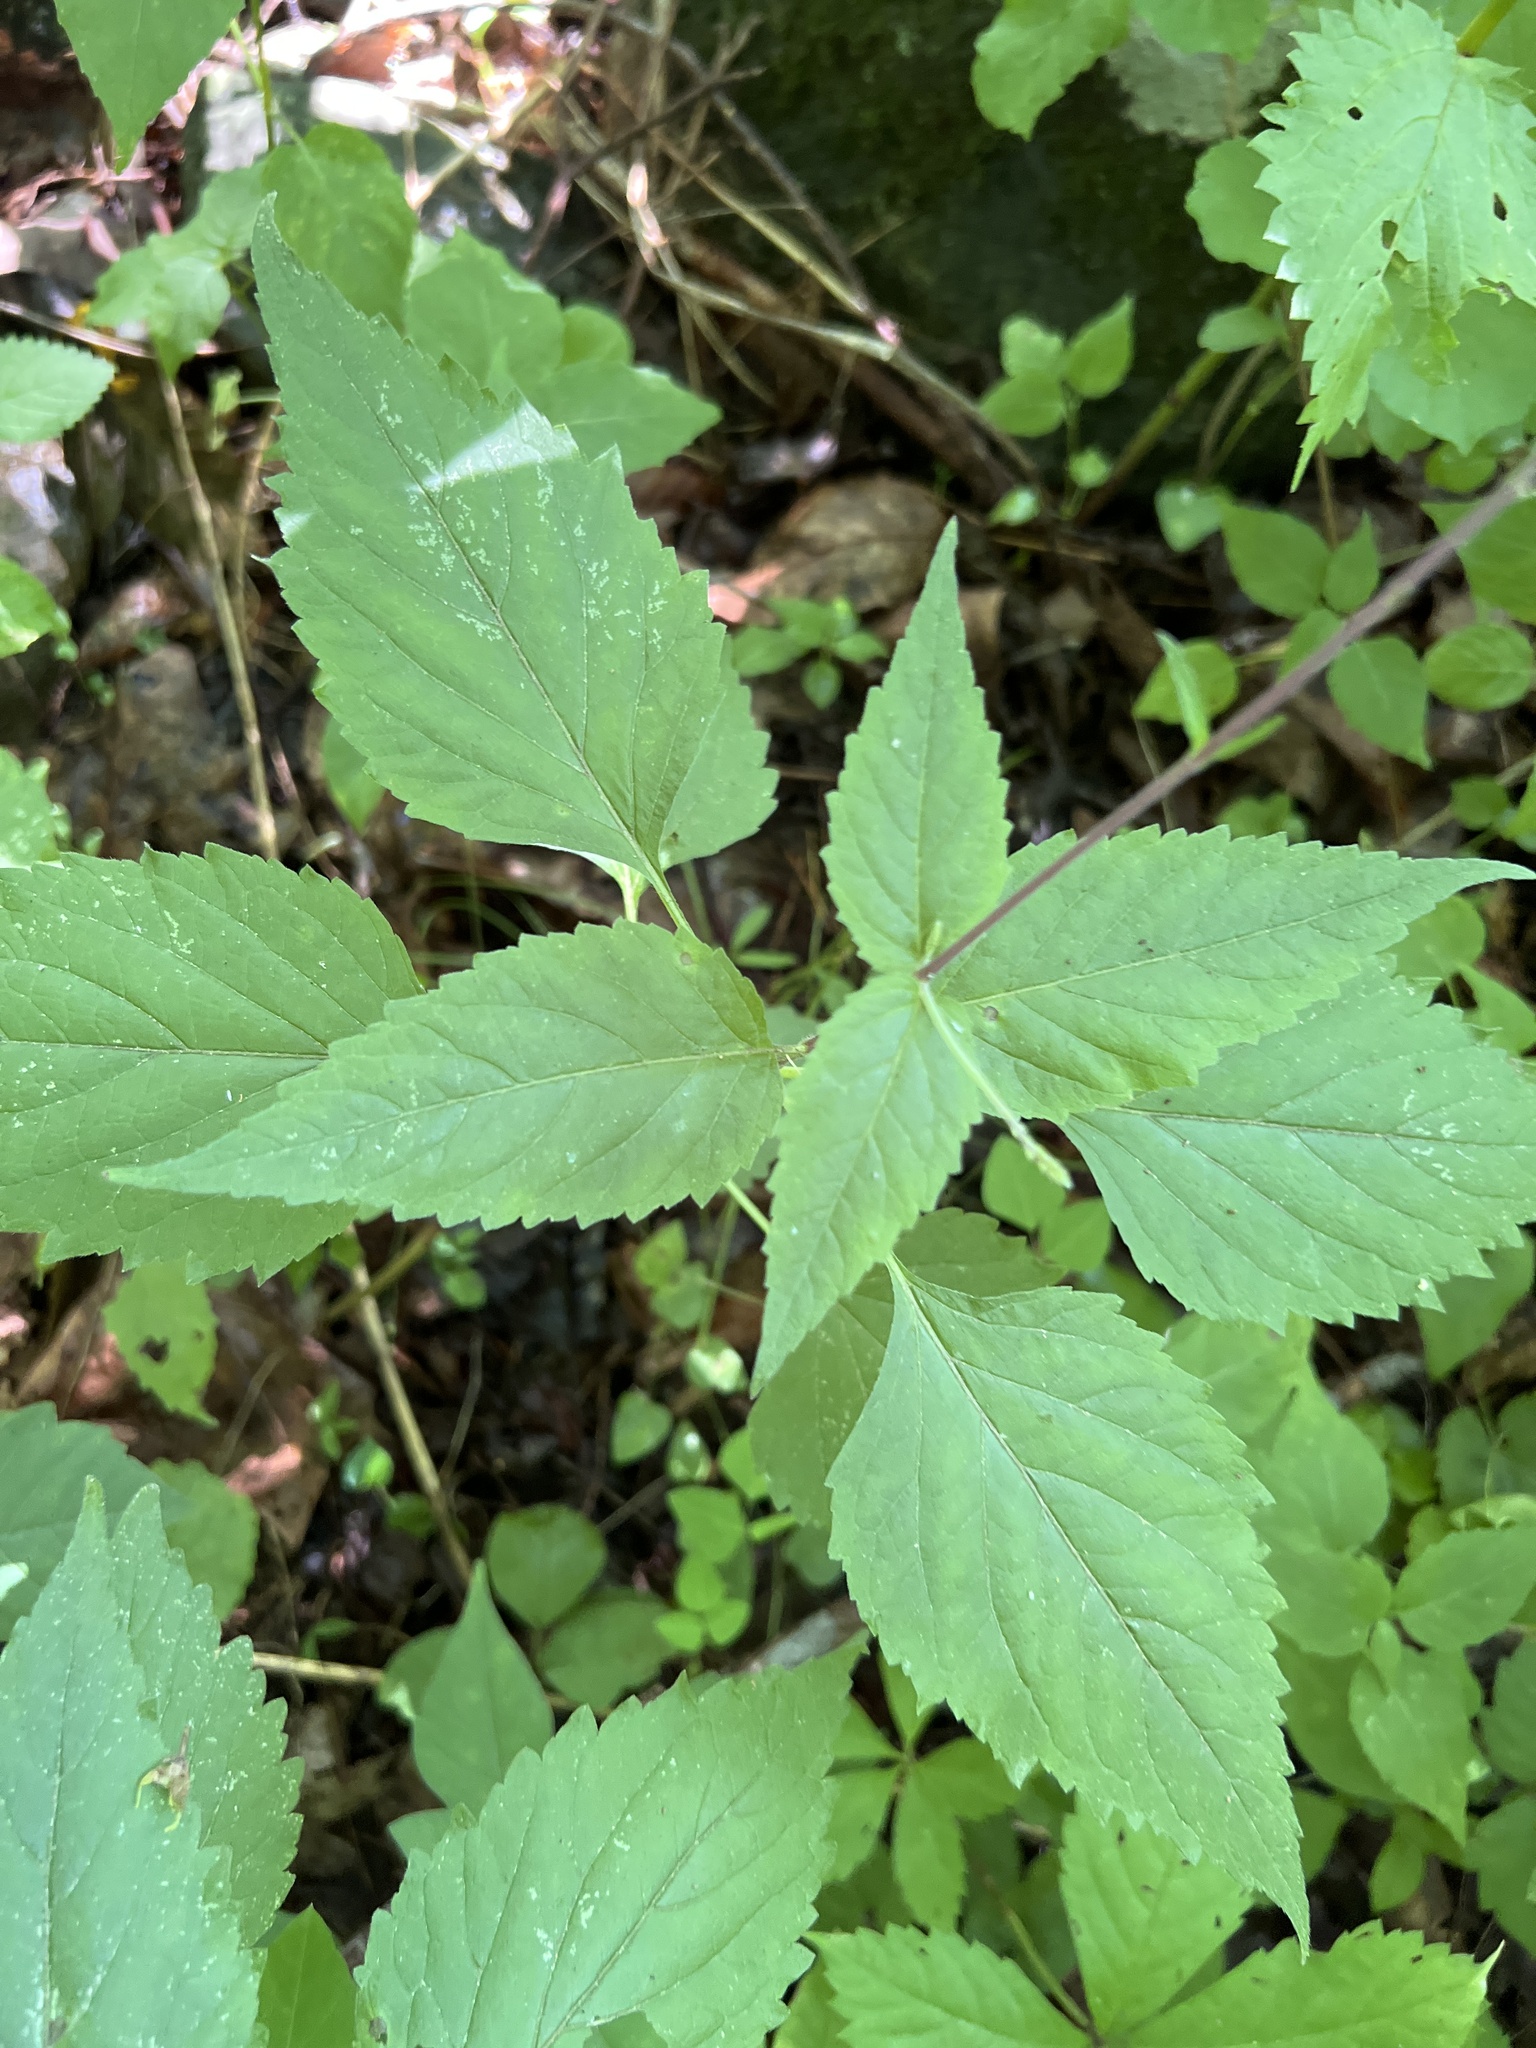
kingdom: Plantae
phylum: Tracheophyta
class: Magnoliopsida
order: Lamiales
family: Phrymaceae
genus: Phryma
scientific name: Phryma leptostachya
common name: American lopseed
